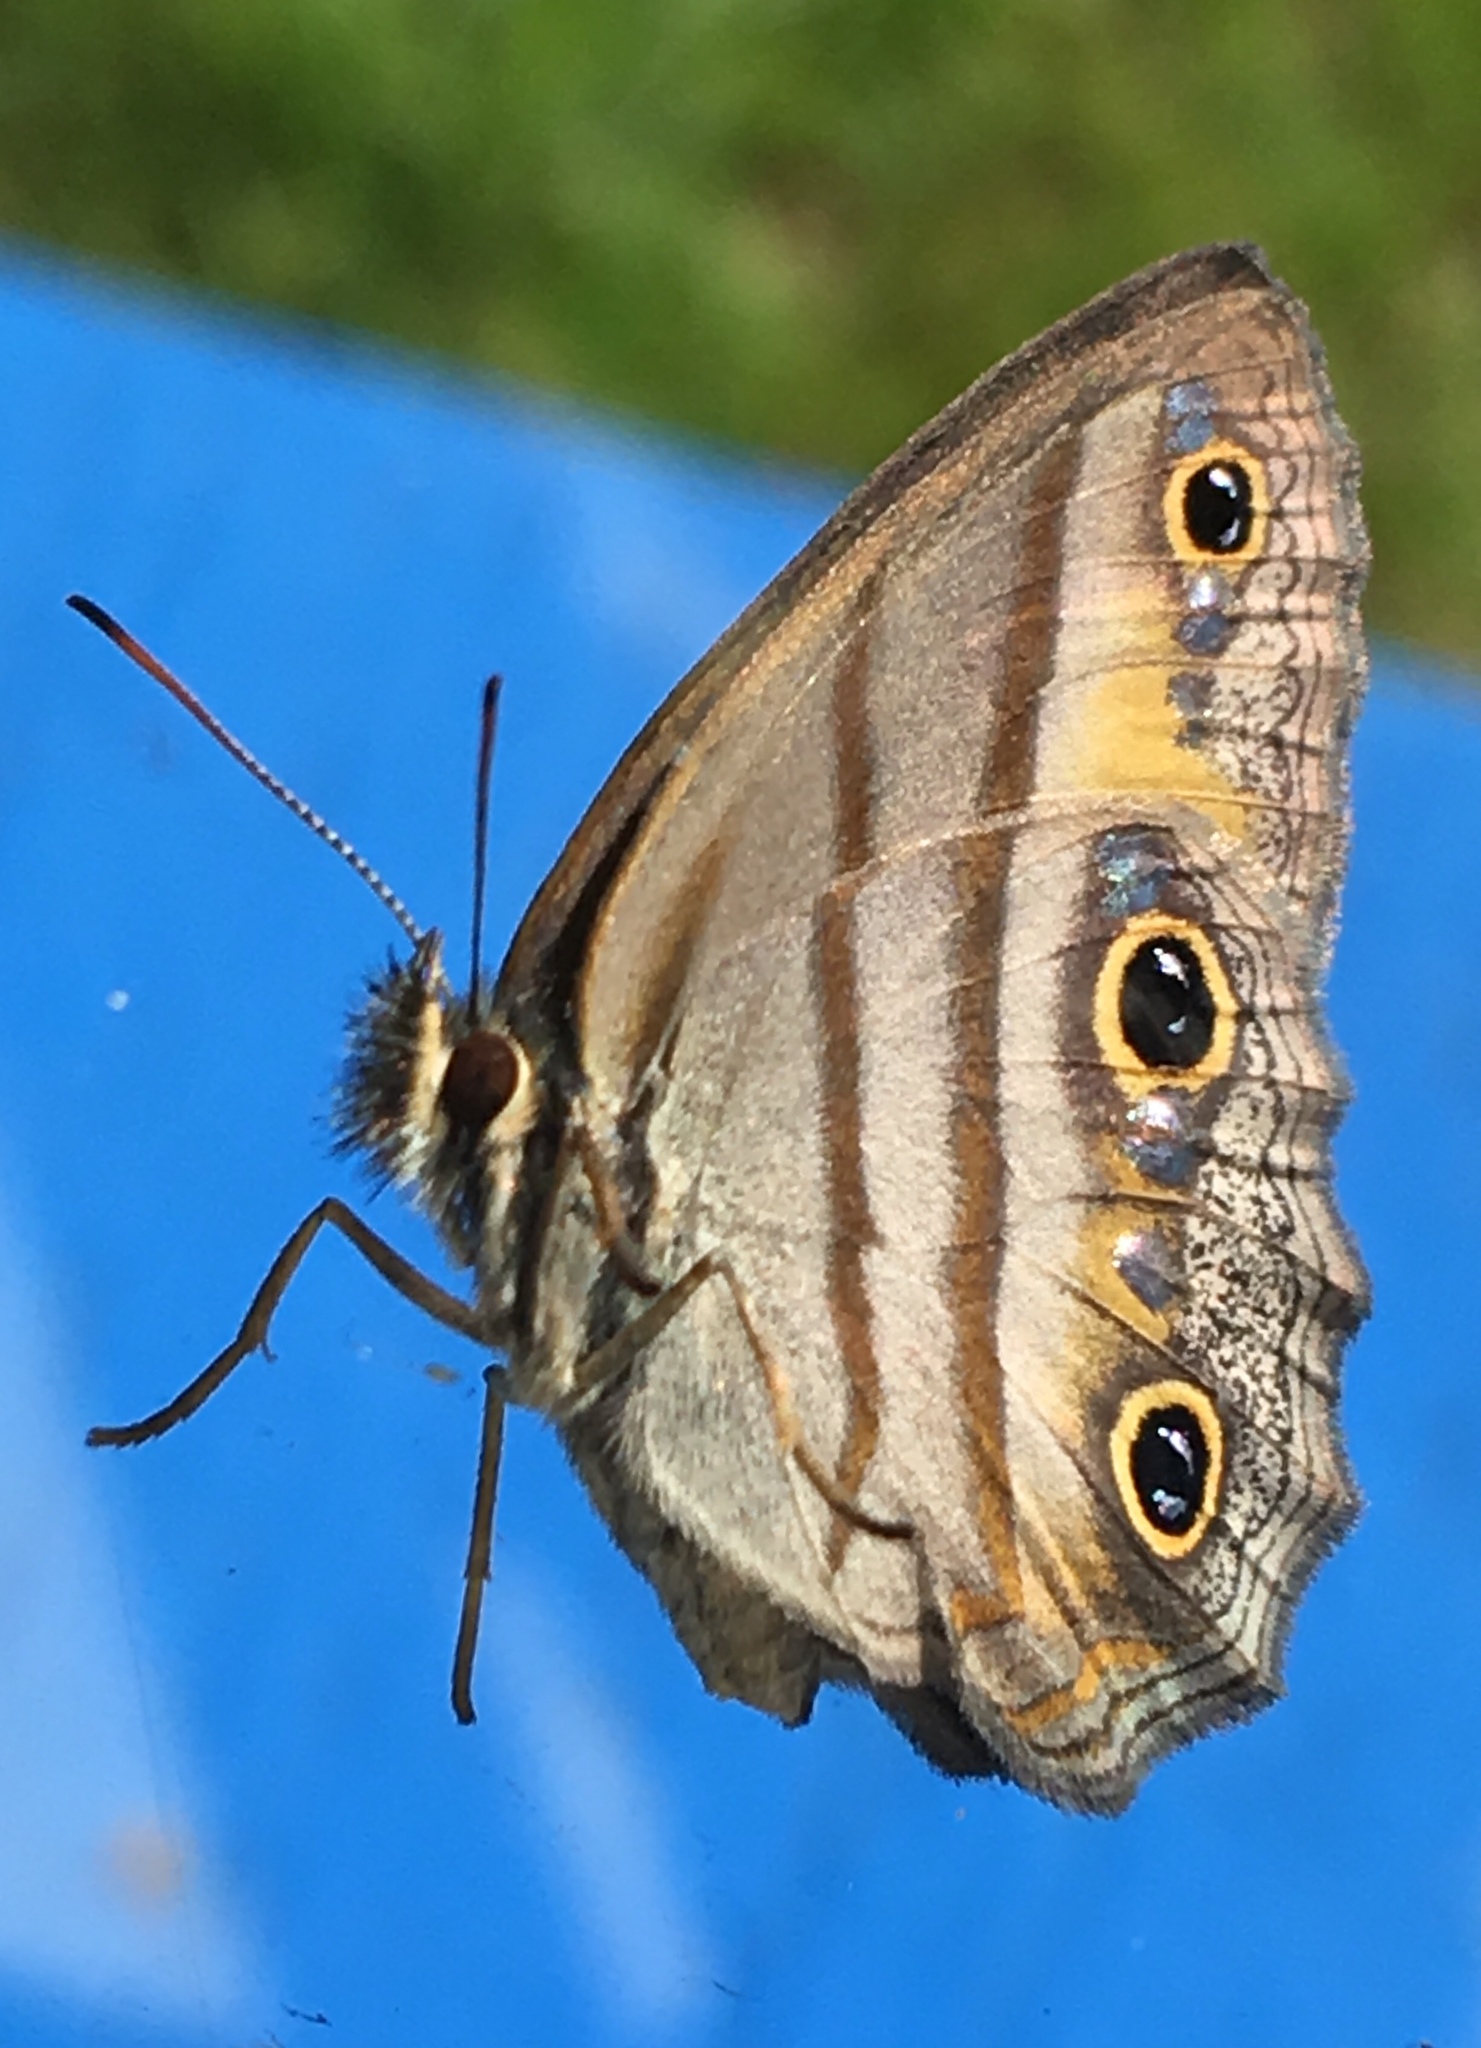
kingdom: Animalia
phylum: Arthropoda
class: Insecta
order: Lepidoptera
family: Nymphalidae
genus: Argyreuptychia
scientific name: Argyreuptychia penelope
